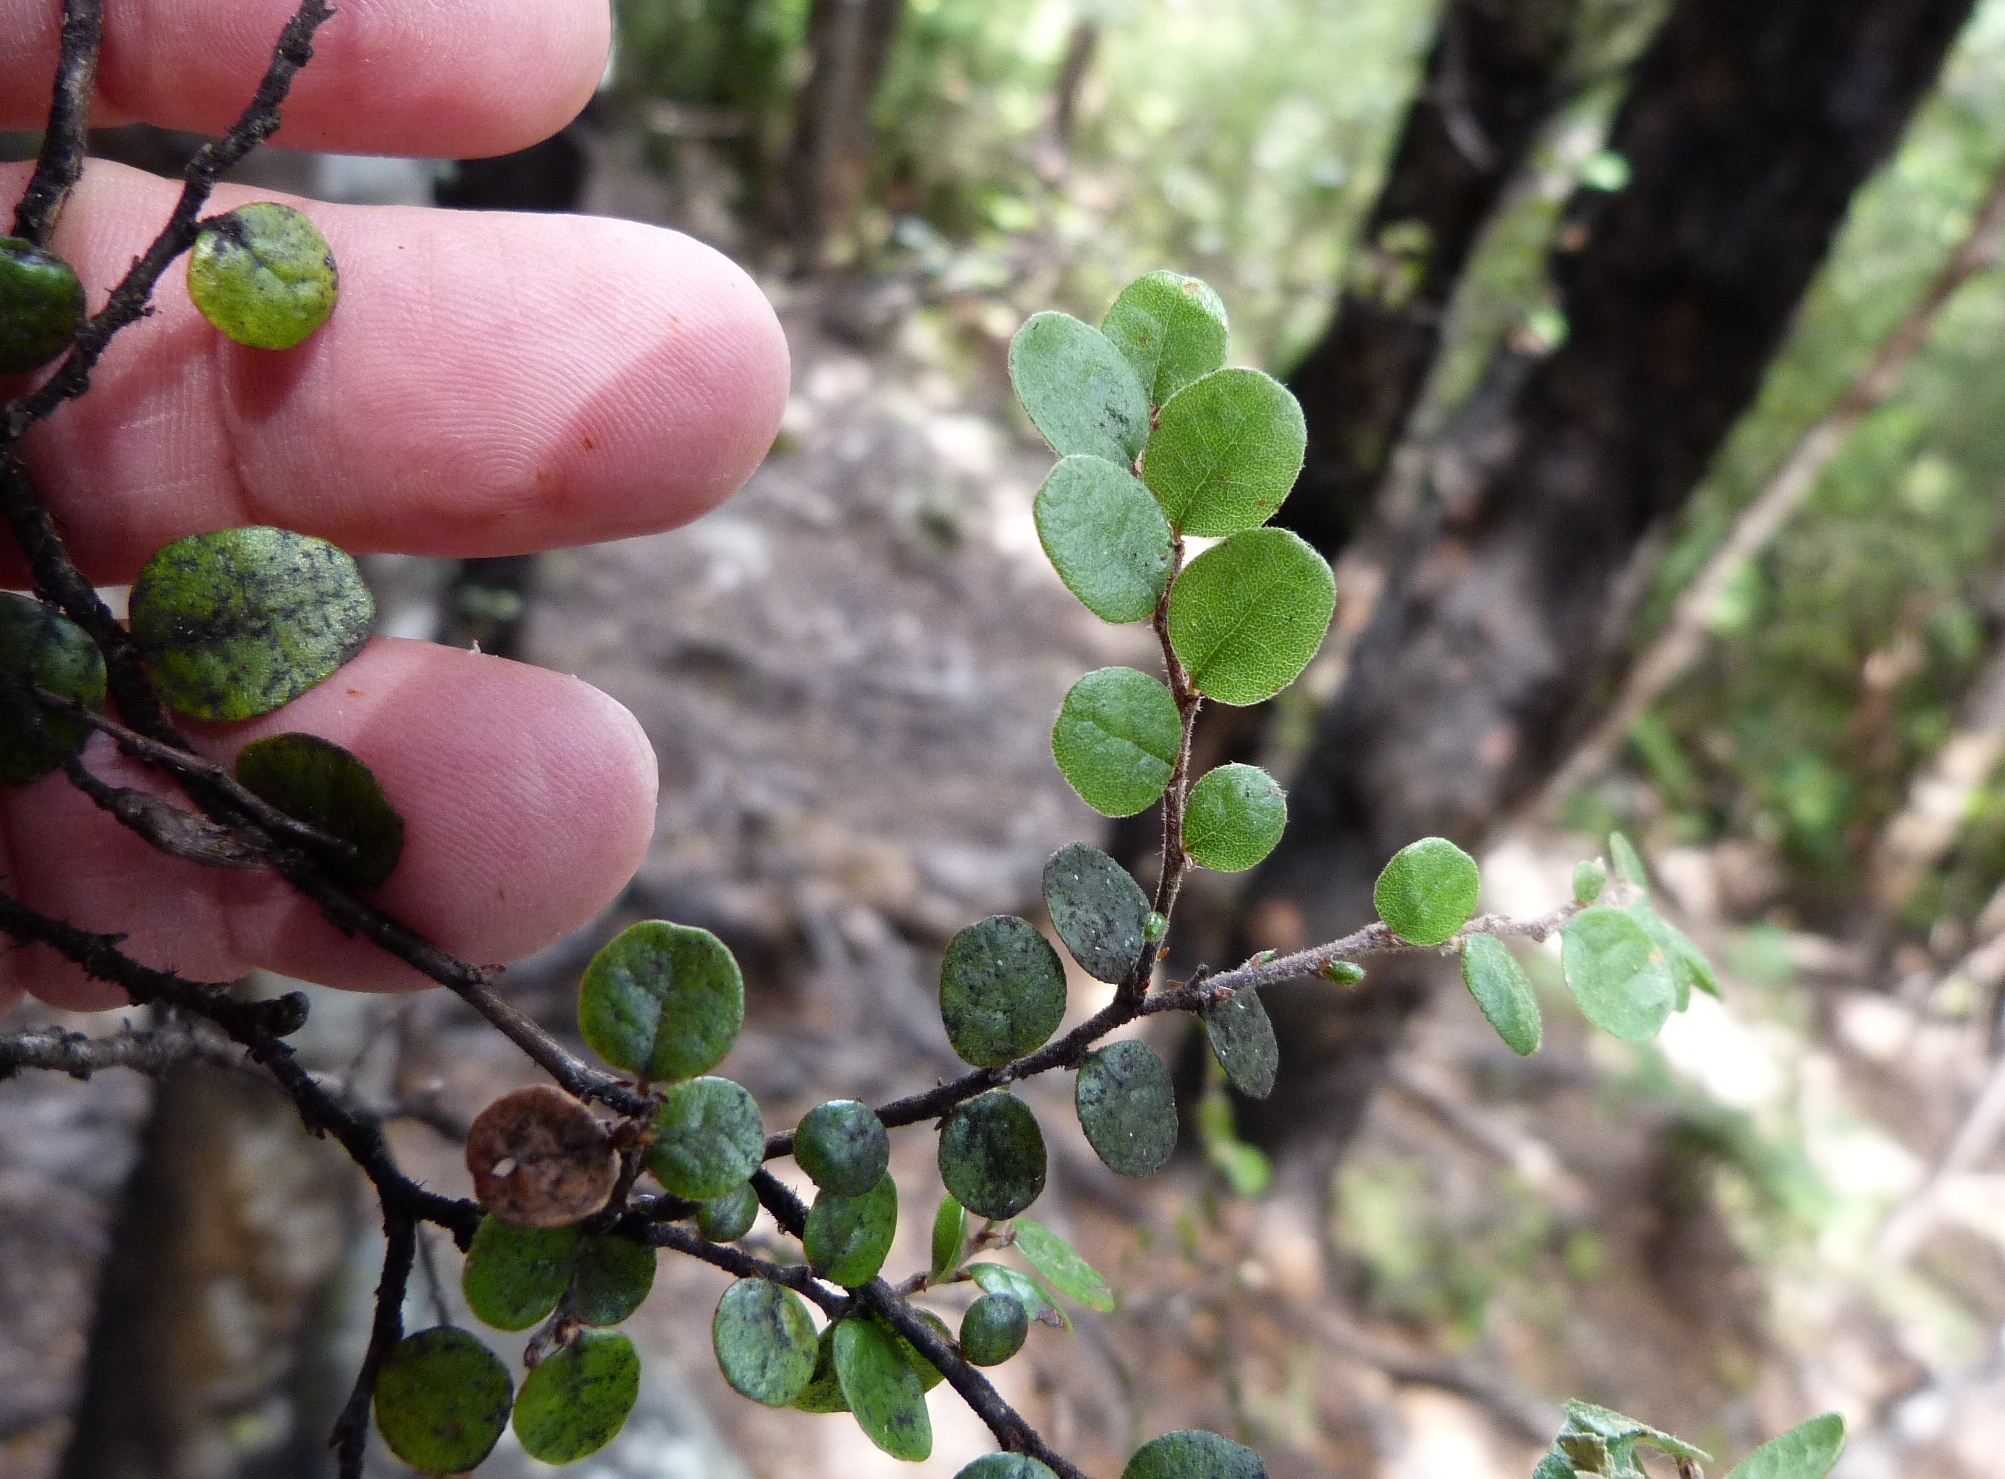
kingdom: Plantae
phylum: Tracheophyta
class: Magnoliopsida
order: Fagales
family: Nothofagaceae
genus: Nothofagus
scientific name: Nothofagus solandri
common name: Black beech
